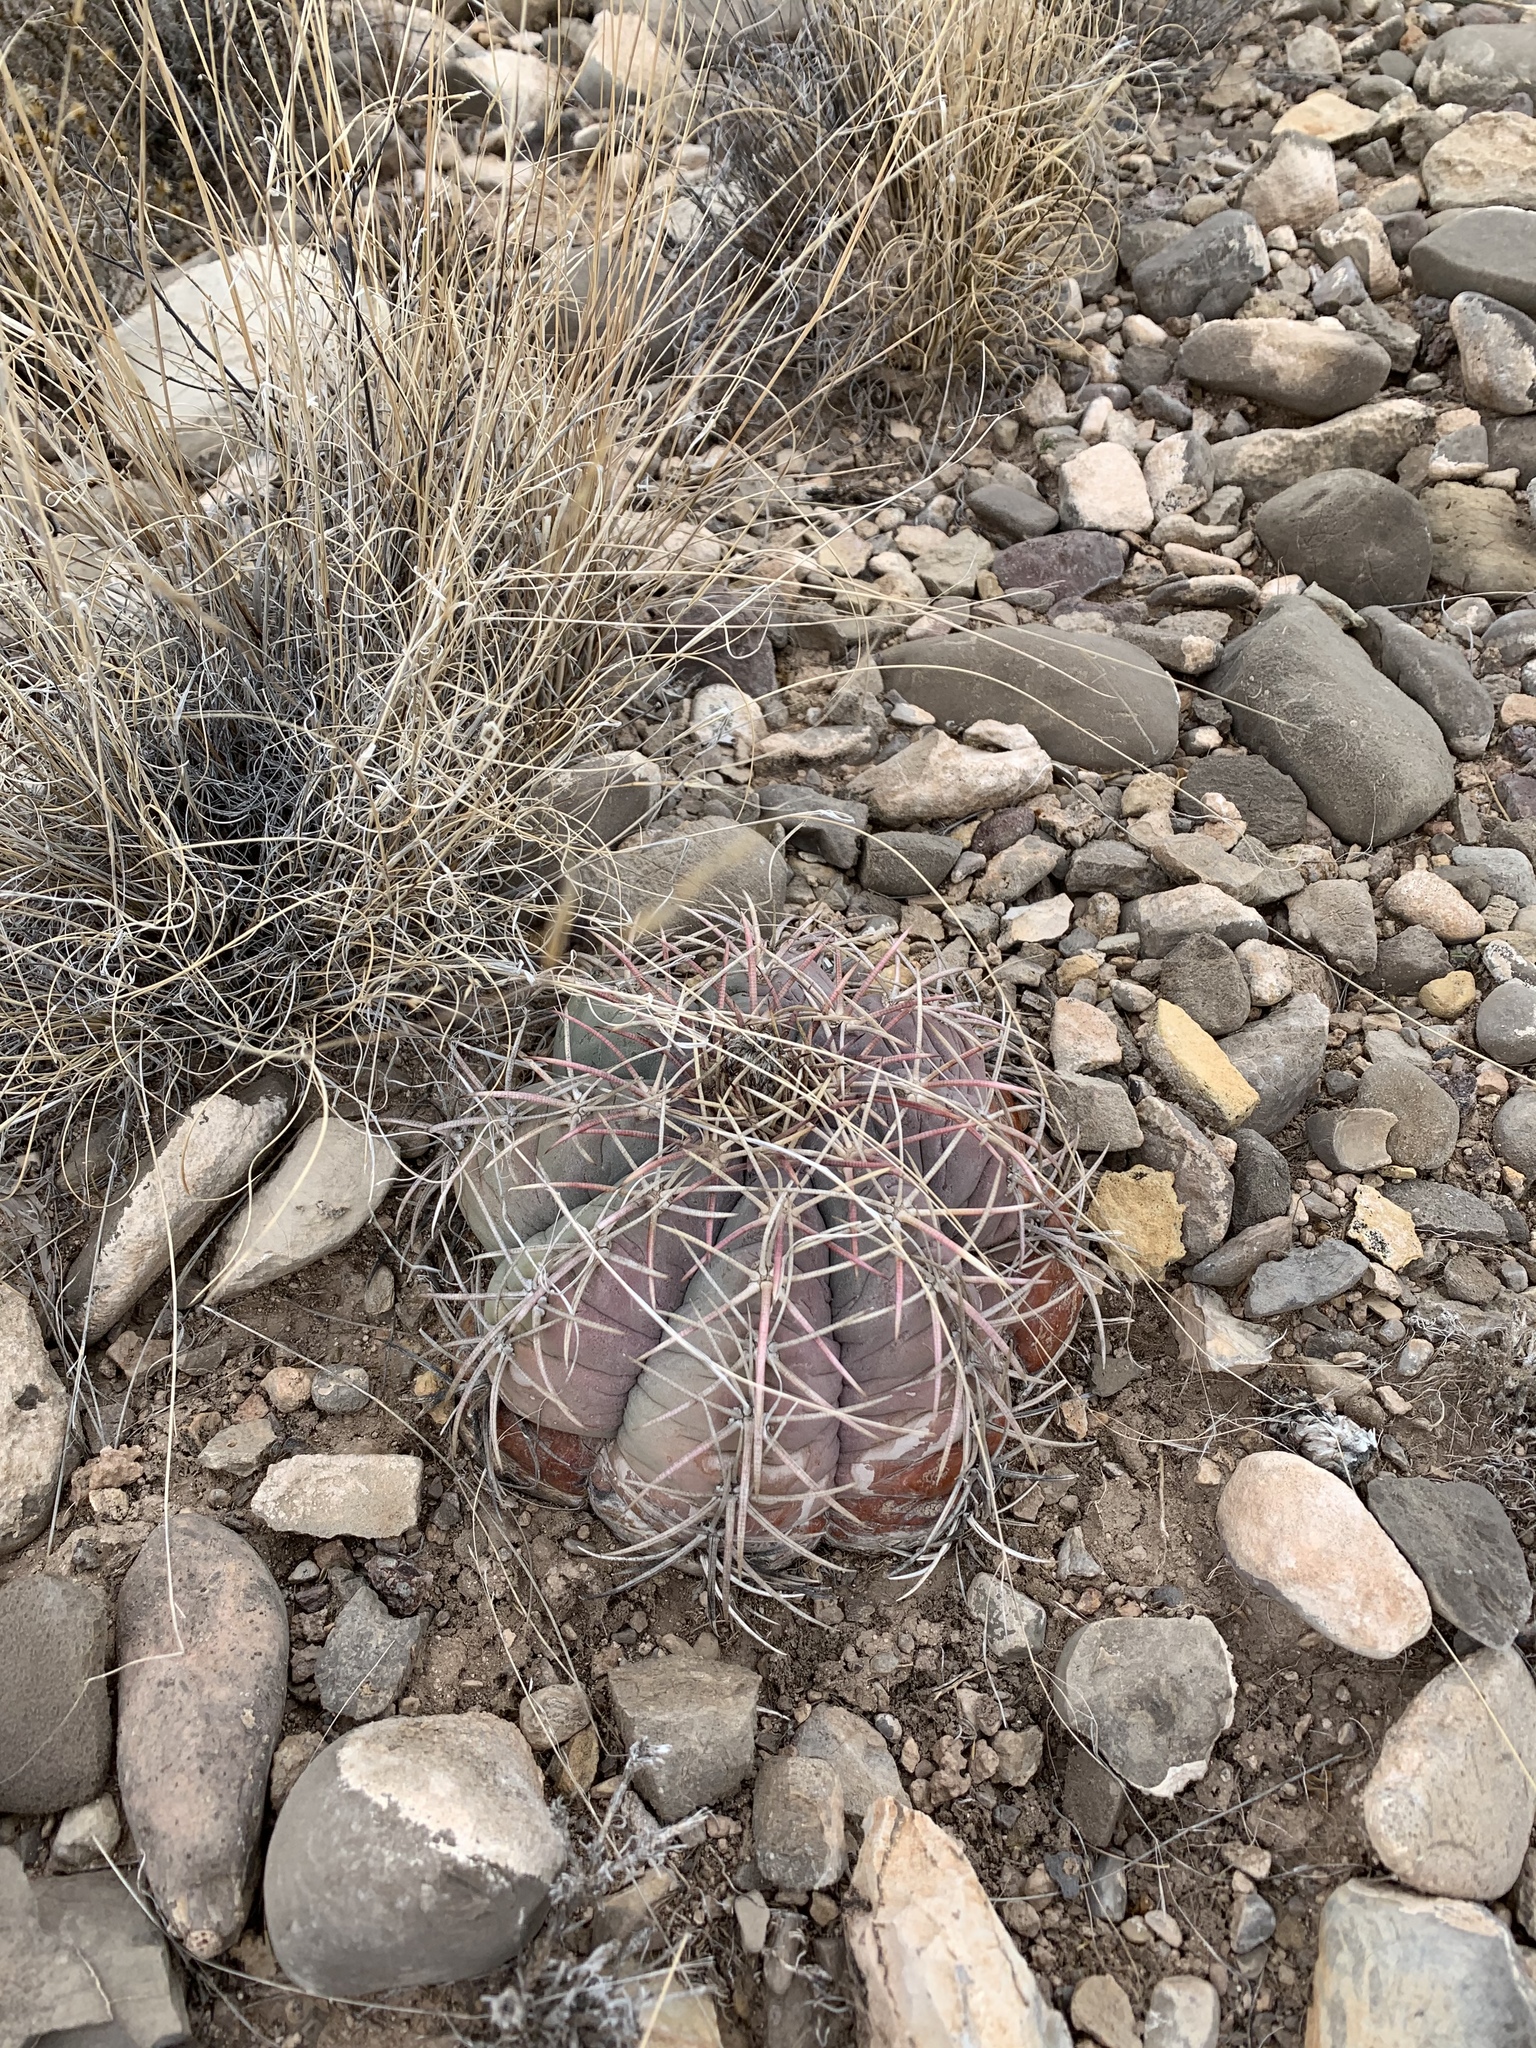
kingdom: Plantae
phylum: Tracheophyta
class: Magnoliopsida
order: Caryophyllales
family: Cactaceae
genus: Echinocactus
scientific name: Echinocactus horizonthalonius
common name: Devilshead
